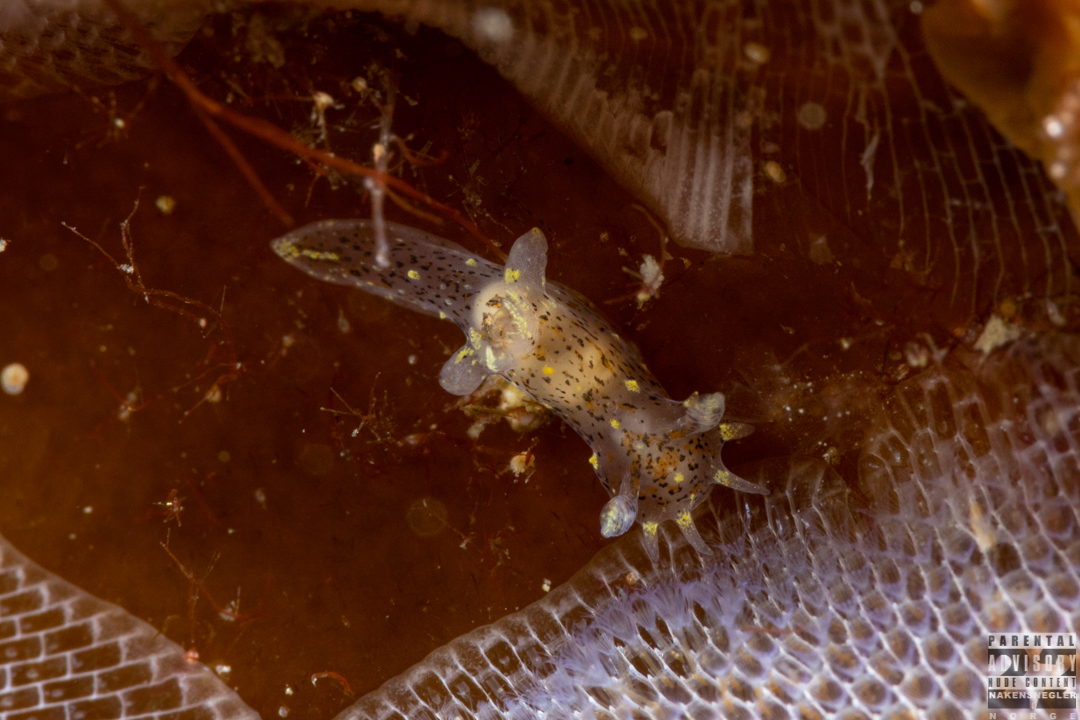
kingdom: Animalia
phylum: Mollusca
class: Gastropoda
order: Nudibranchia
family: Polyceridae
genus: Polycera
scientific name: Polycera norvegica
